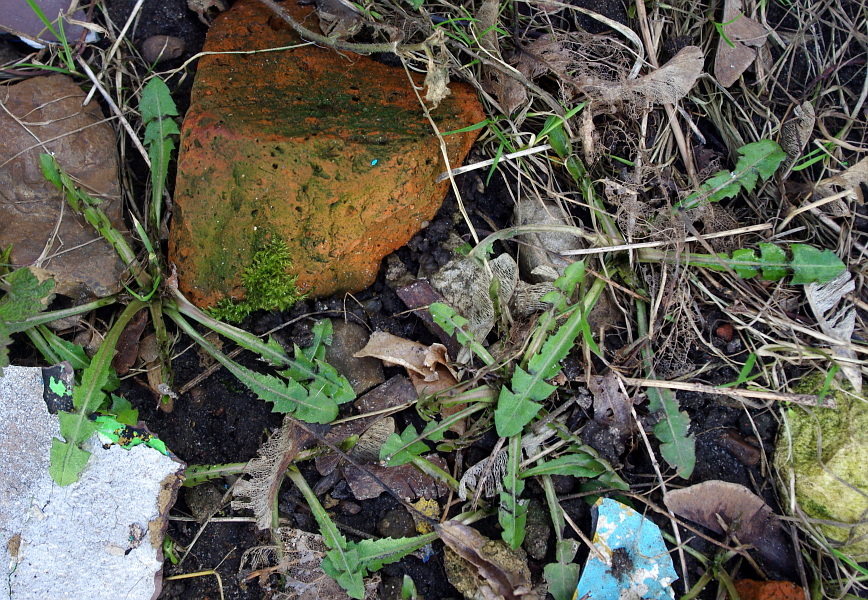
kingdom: Plantae
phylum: Tracheophyta
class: Magnoliopsida
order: Asterales
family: Asteraceae
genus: Taraxacum
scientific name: Taraxacum officinale
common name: Common dandelion
